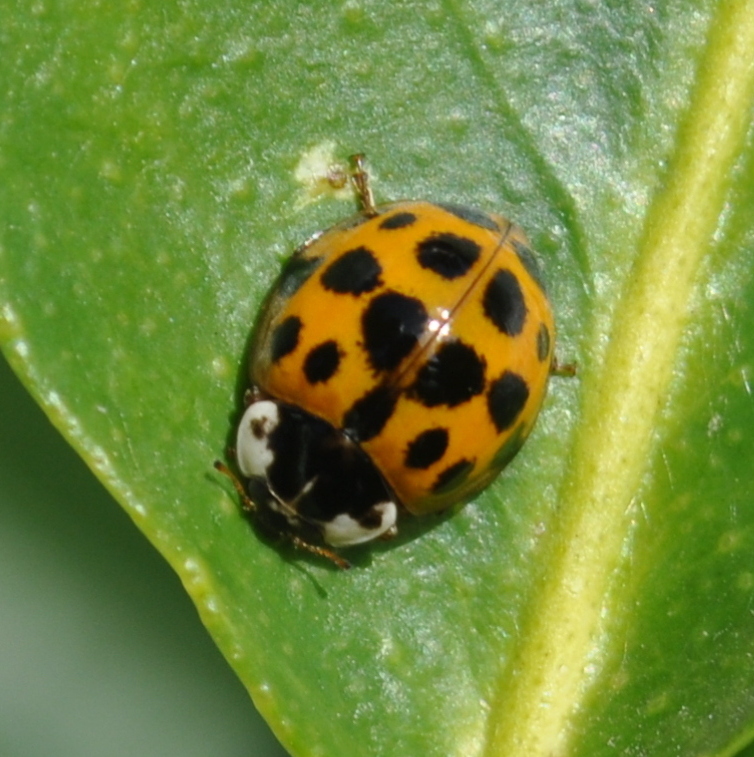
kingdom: Animalia
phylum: Arthropoda
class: Insecta
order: Coleoptera
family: Coccinellidae
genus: Harmonia
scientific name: Harmonia axyridis
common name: Harlequin ladybird
